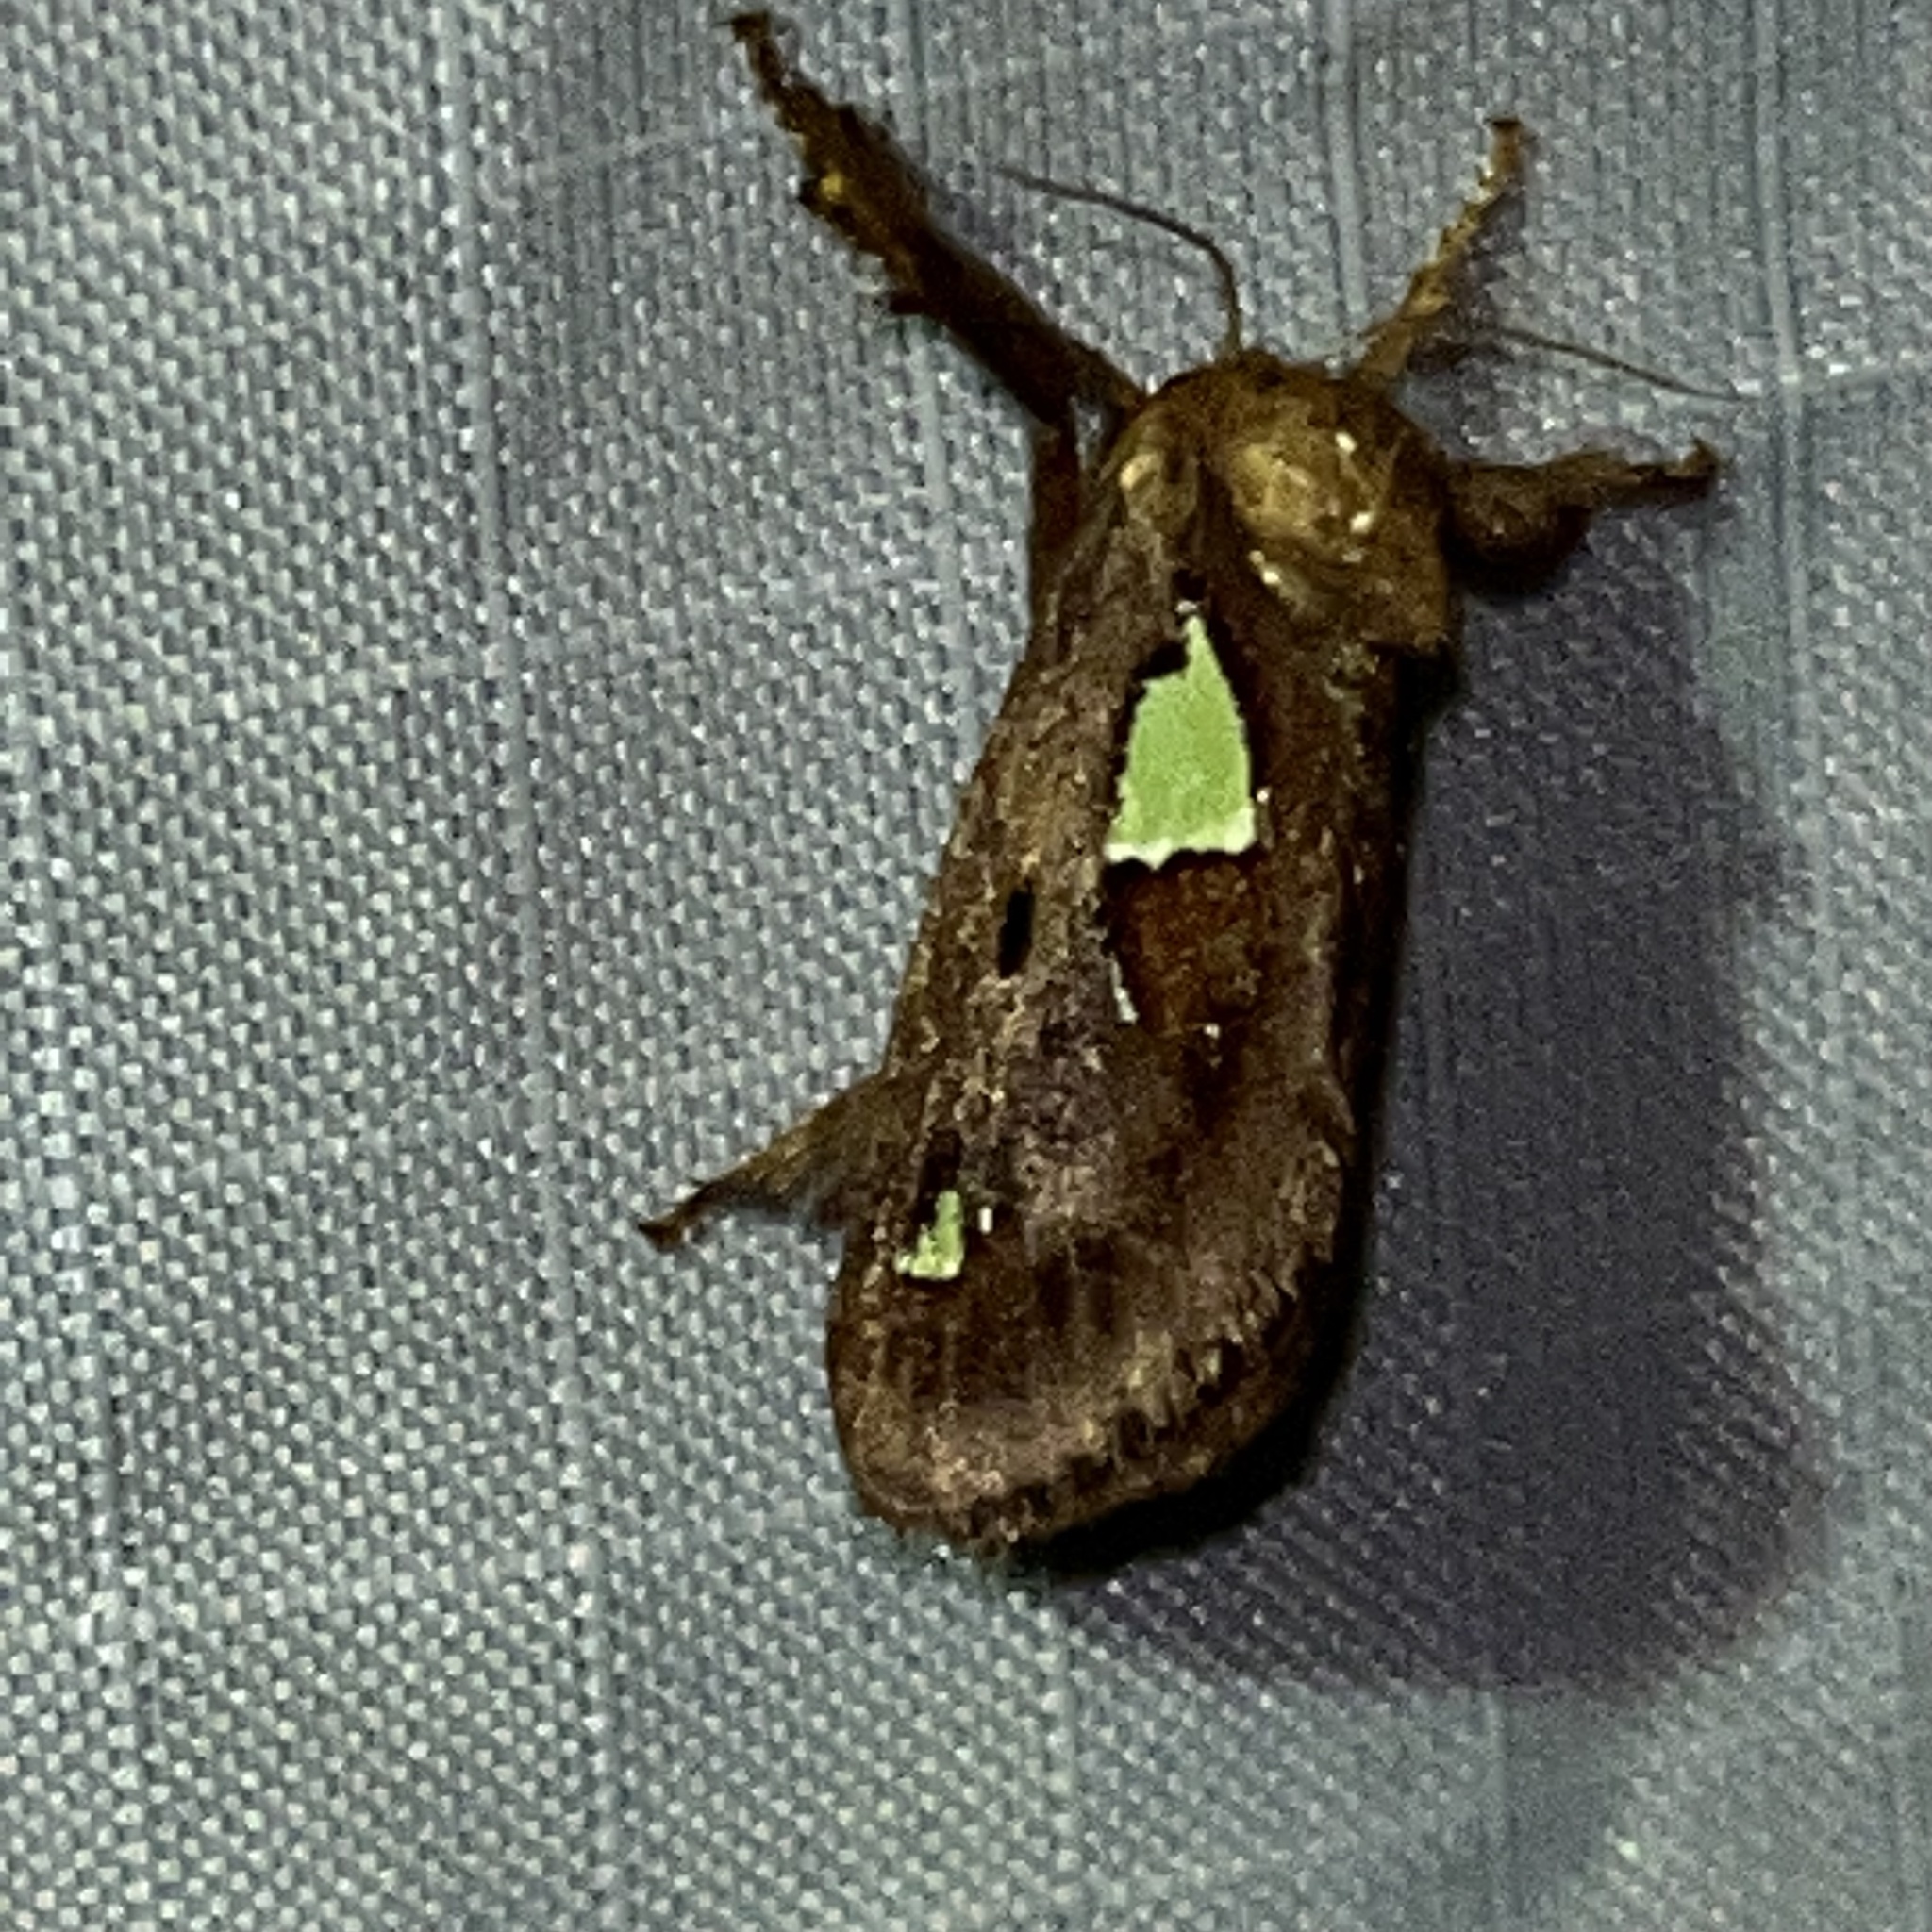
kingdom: Animalia
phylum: Arthropoda
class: Insecta
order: Lepidoptera
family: Limacodidae
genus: Euclea
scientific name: Euclea delphinii
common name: Spiny oak-slug moth
